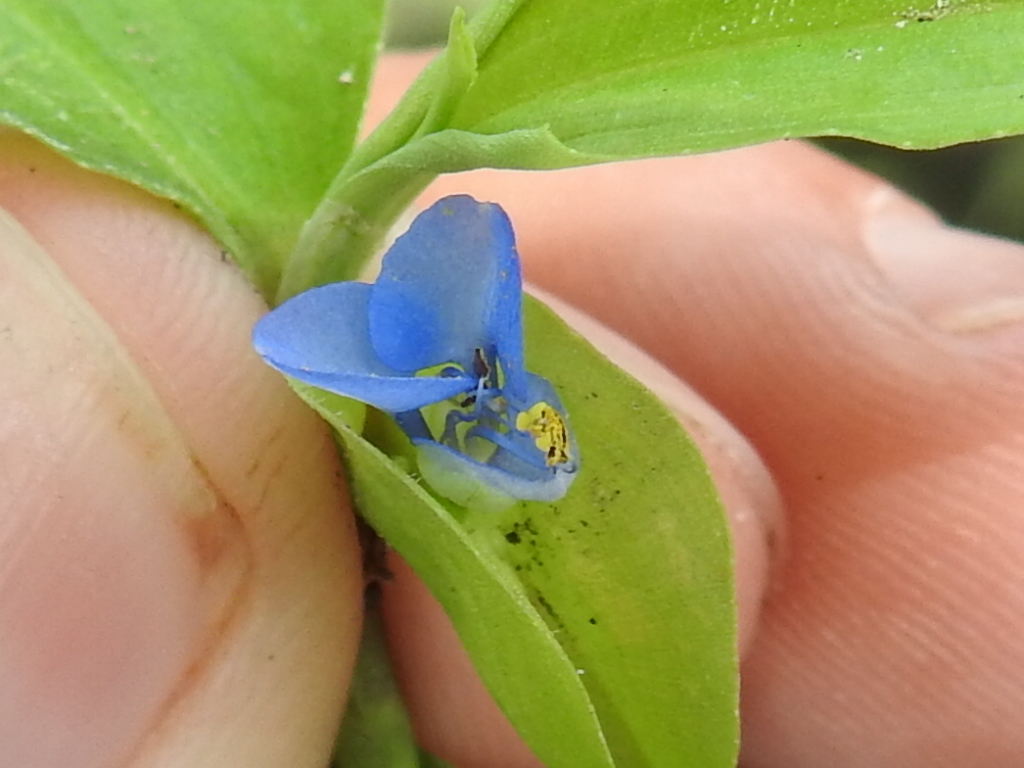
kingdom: Plantae
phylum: Tracheophyta
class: Liliopsida
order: Commelinales
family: Commelinaceae
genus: Commelina
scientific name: Commelina diffusa
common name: Climbing dayflower
